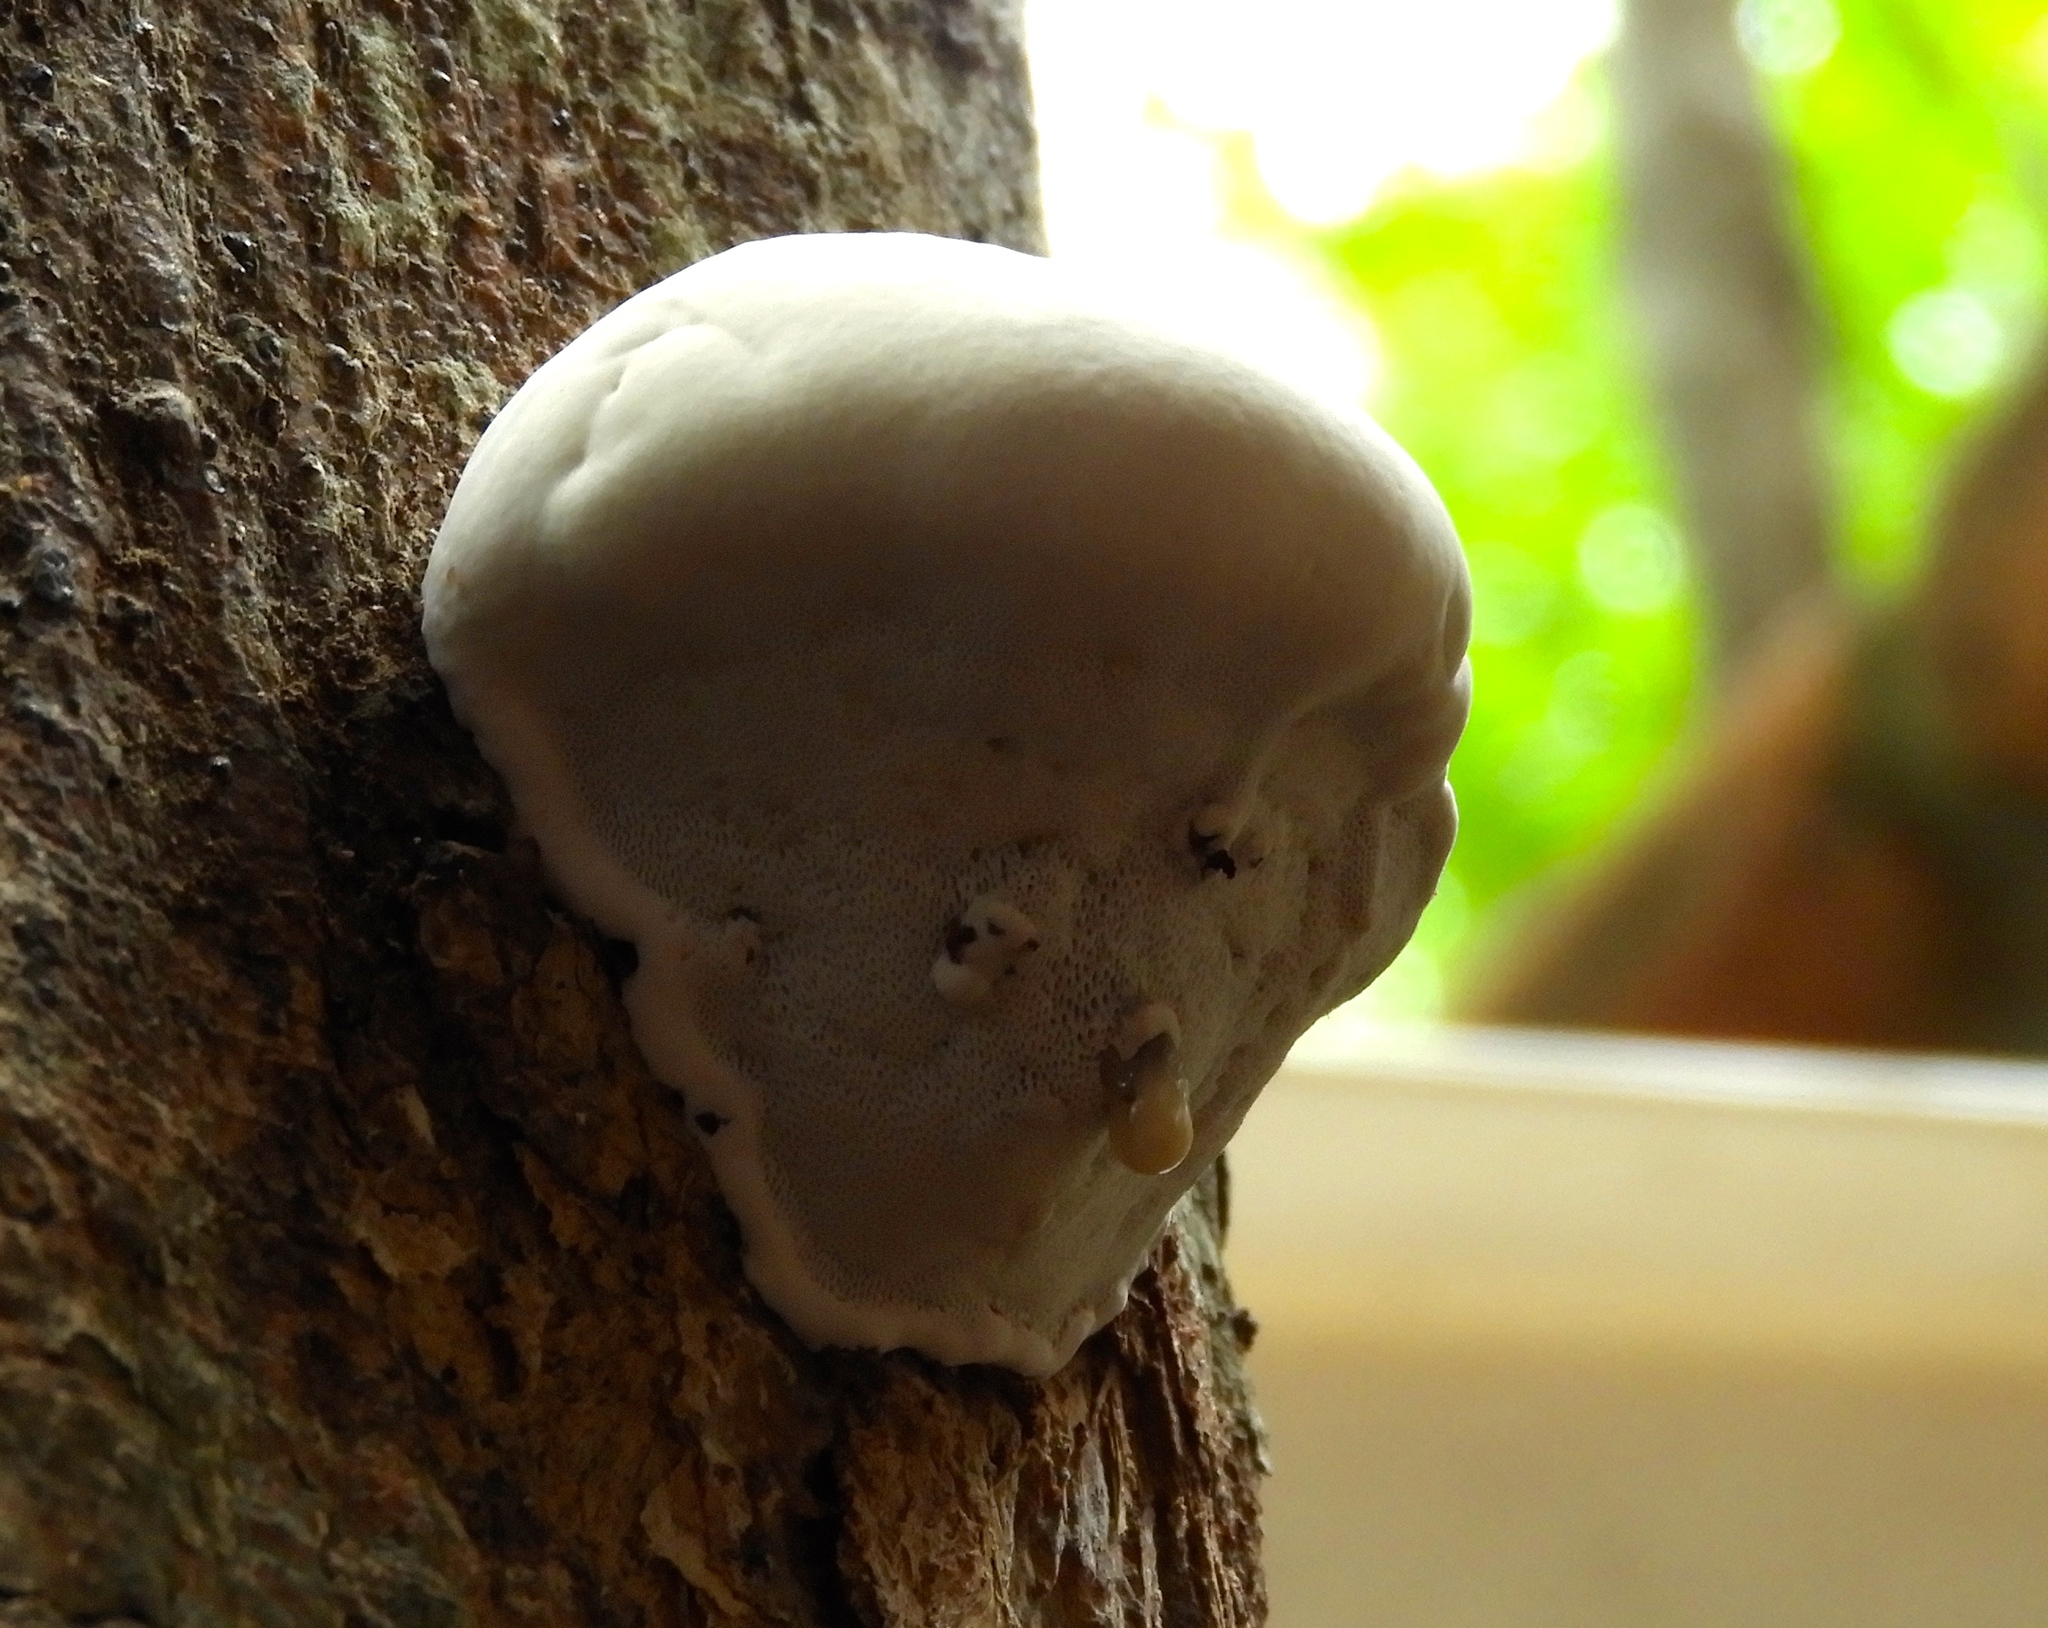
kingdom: Fungi
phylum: Basidiomycota
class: Agaricomycetes
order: Polyporales
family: Polyporaceae
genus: Ganoderma
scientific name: Ganoderma
